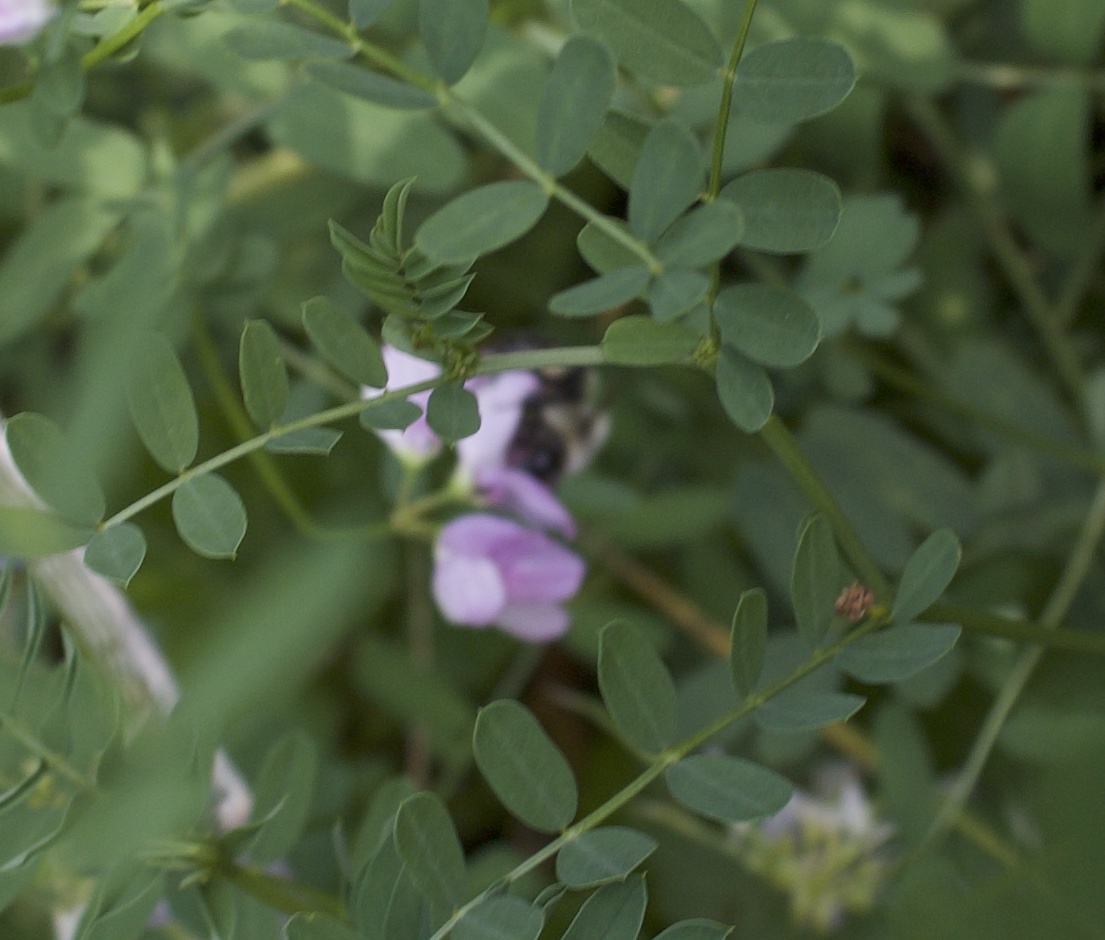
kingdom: Animalia
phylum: Arthropoda
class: Insecta
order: Hymenoptera
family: Apidae
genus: Bombus
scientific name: Bombus impatiens
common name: Common eastern bumble bee
